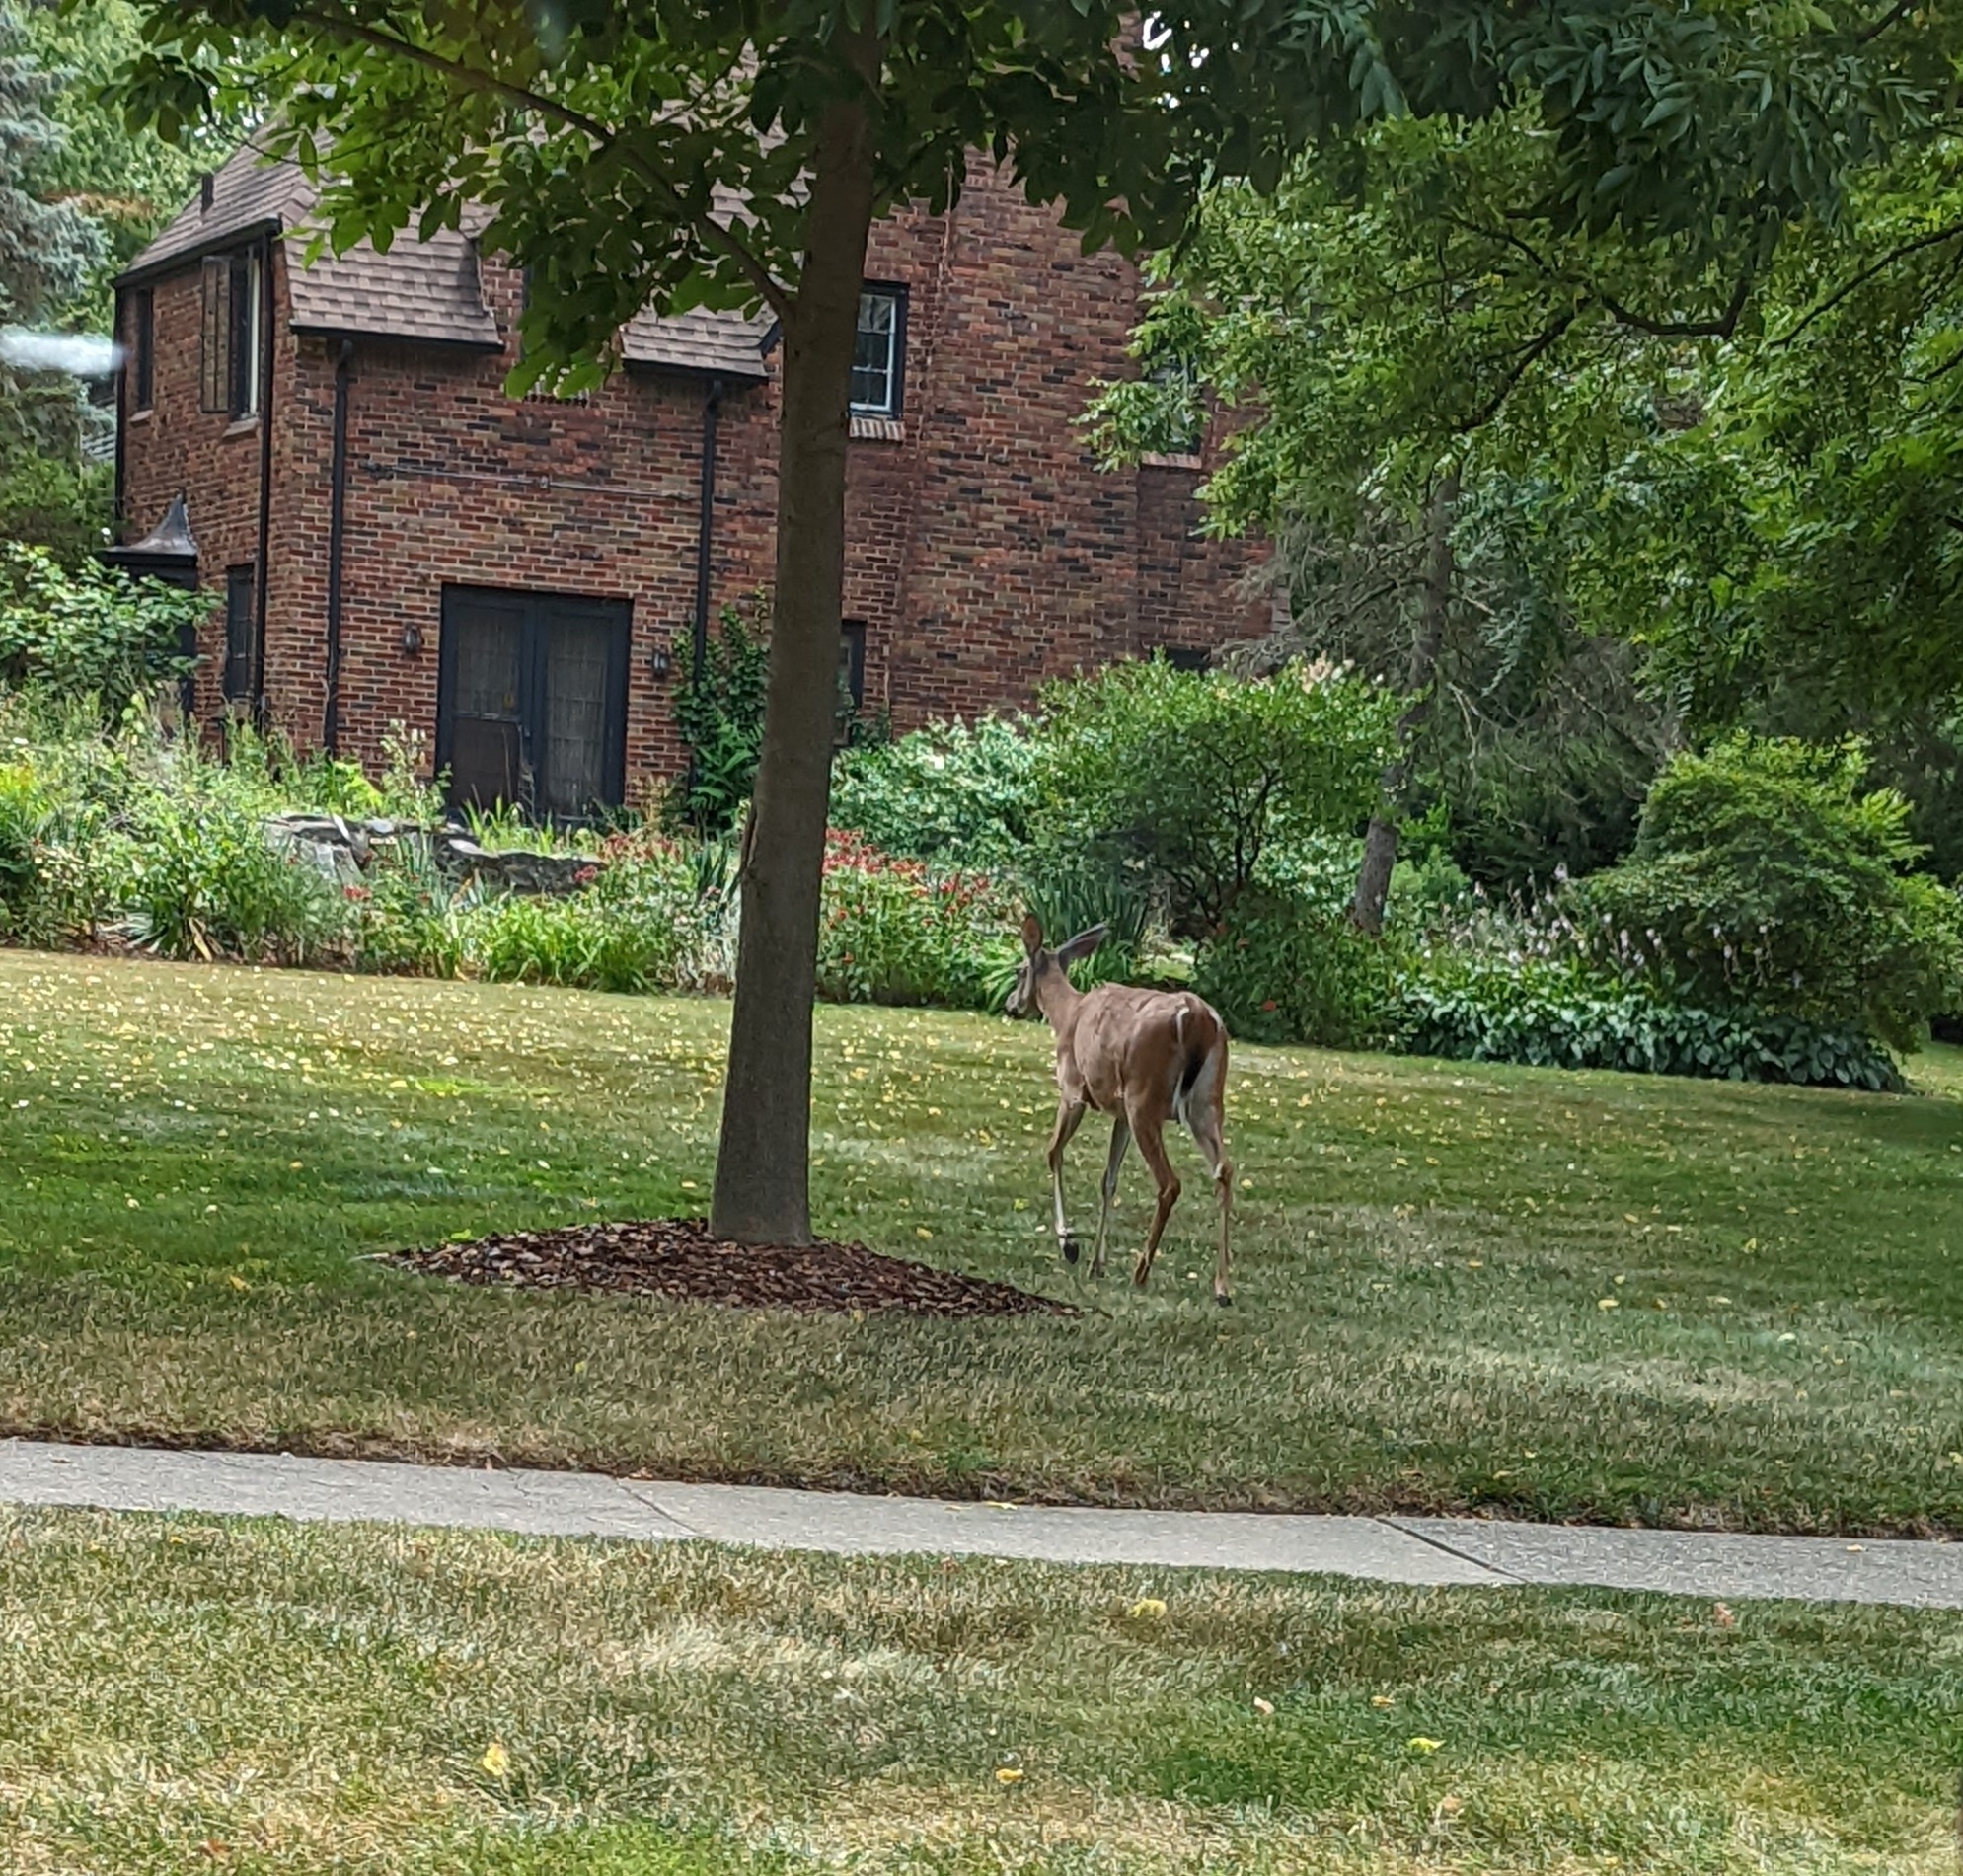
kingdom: Animalia
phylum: Chordata
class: Mammalia
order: Artiodactyla
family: Cervidae
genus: Odocoileus
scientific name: Odocoileus virginianus
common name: White-tailed deer
